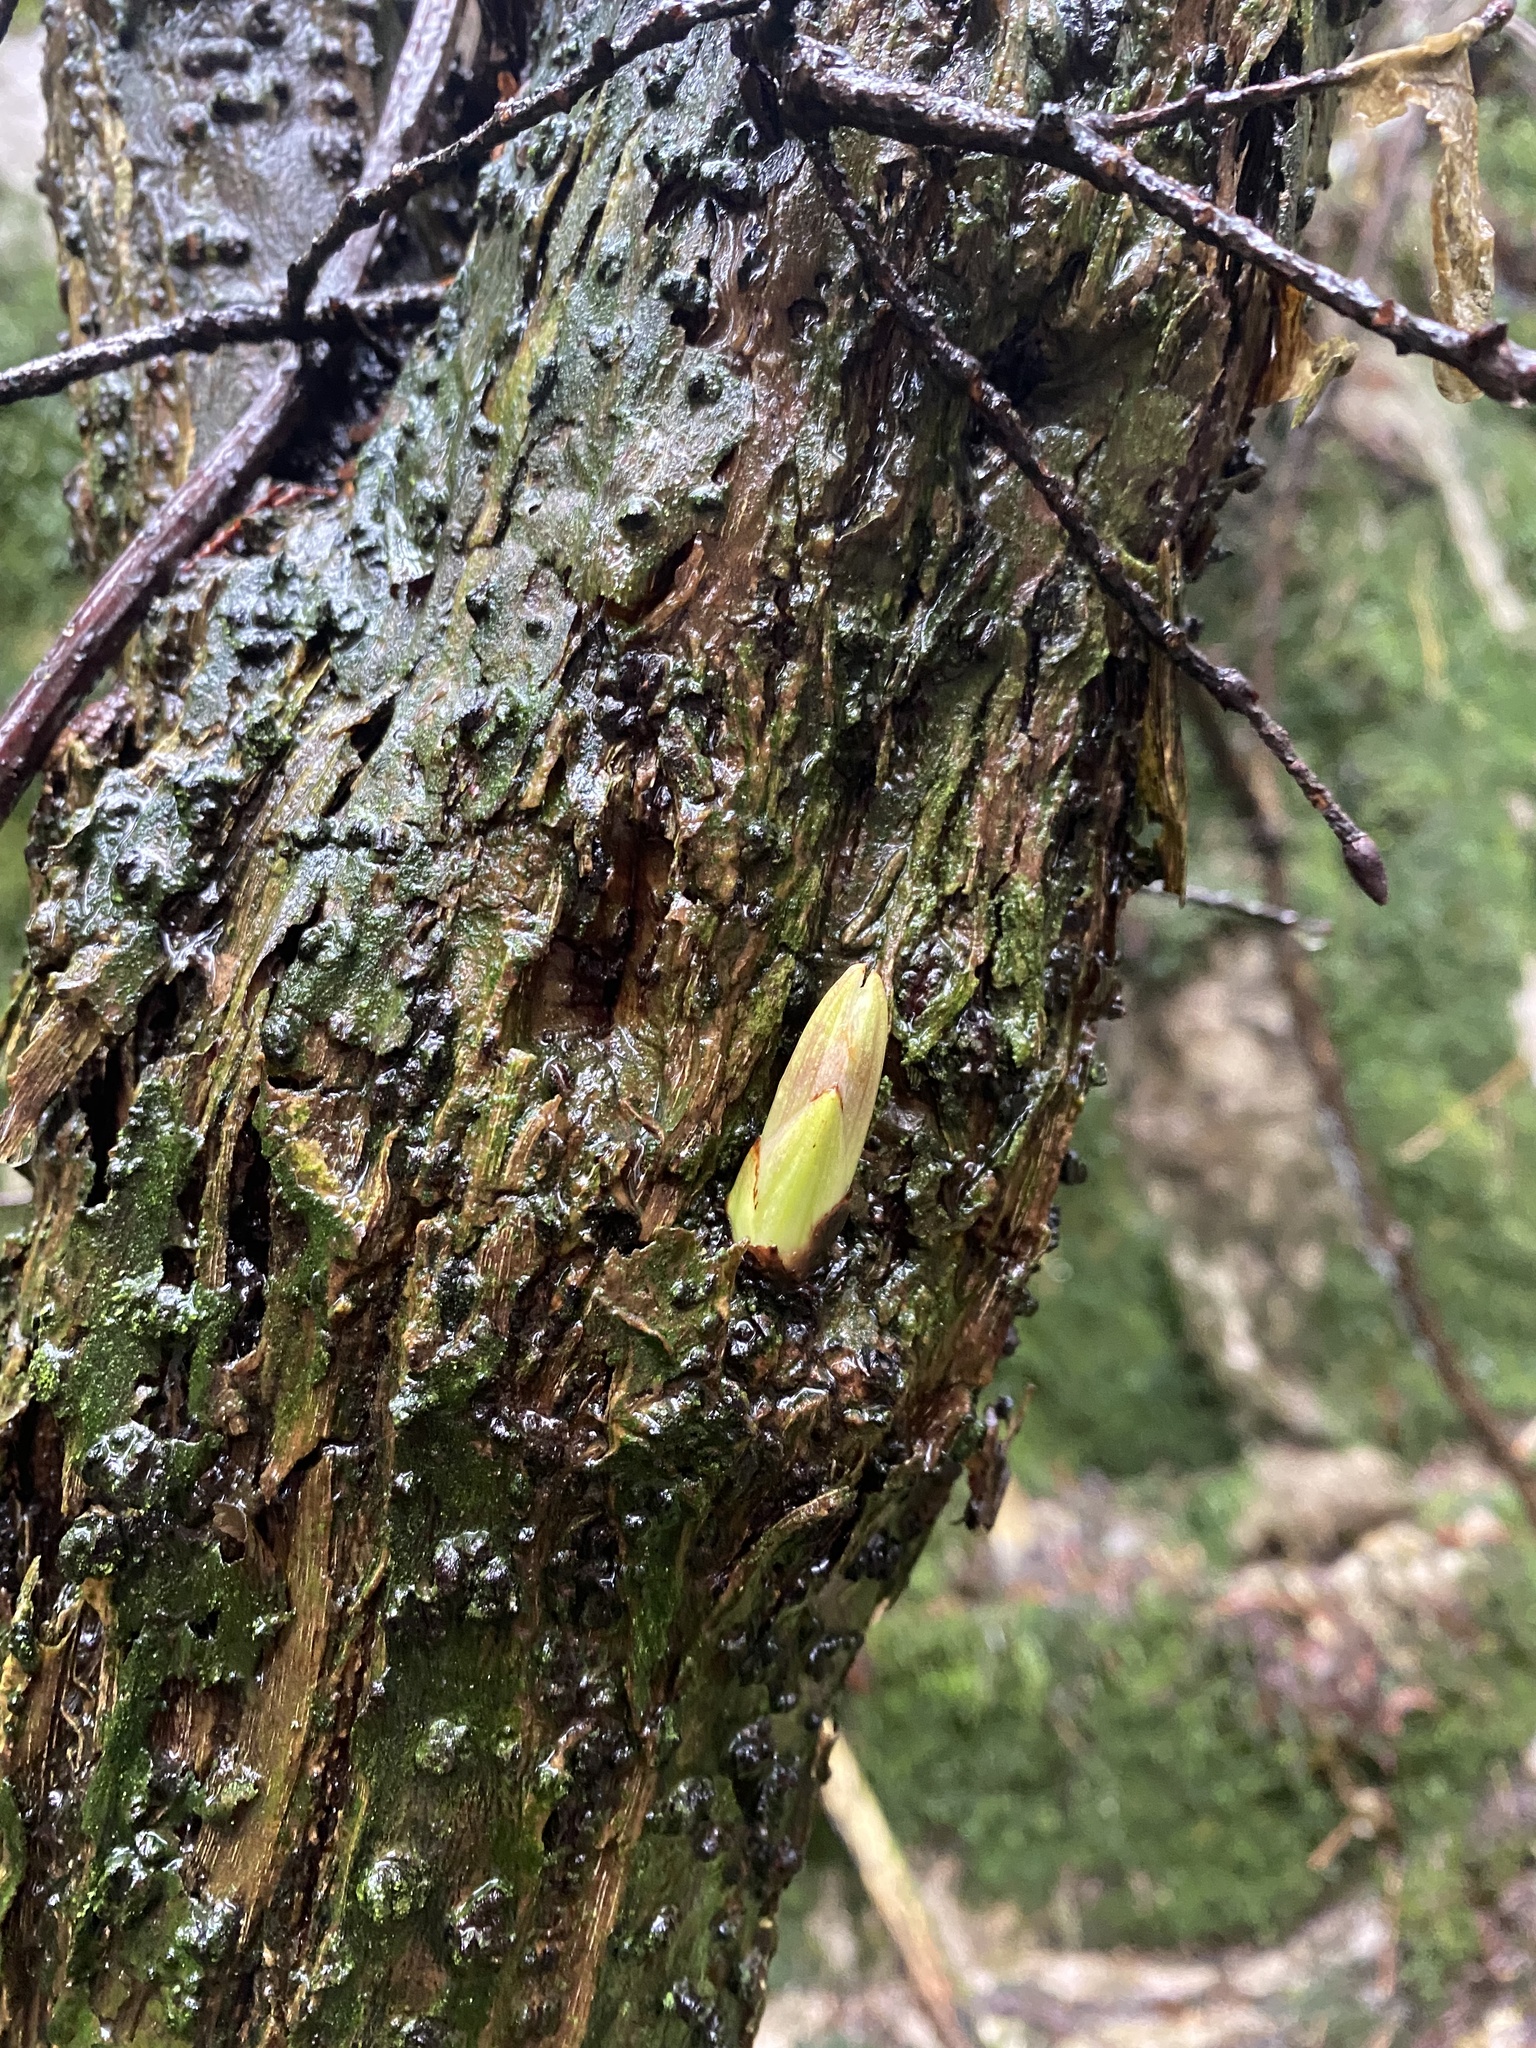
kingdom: Plantae
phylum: Tracheophyta
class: Magnoliopsida
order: Dipsacales
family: Viburnaceae
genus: Sambucus
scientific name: Sambucus racemosa
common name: Red-berried elder
